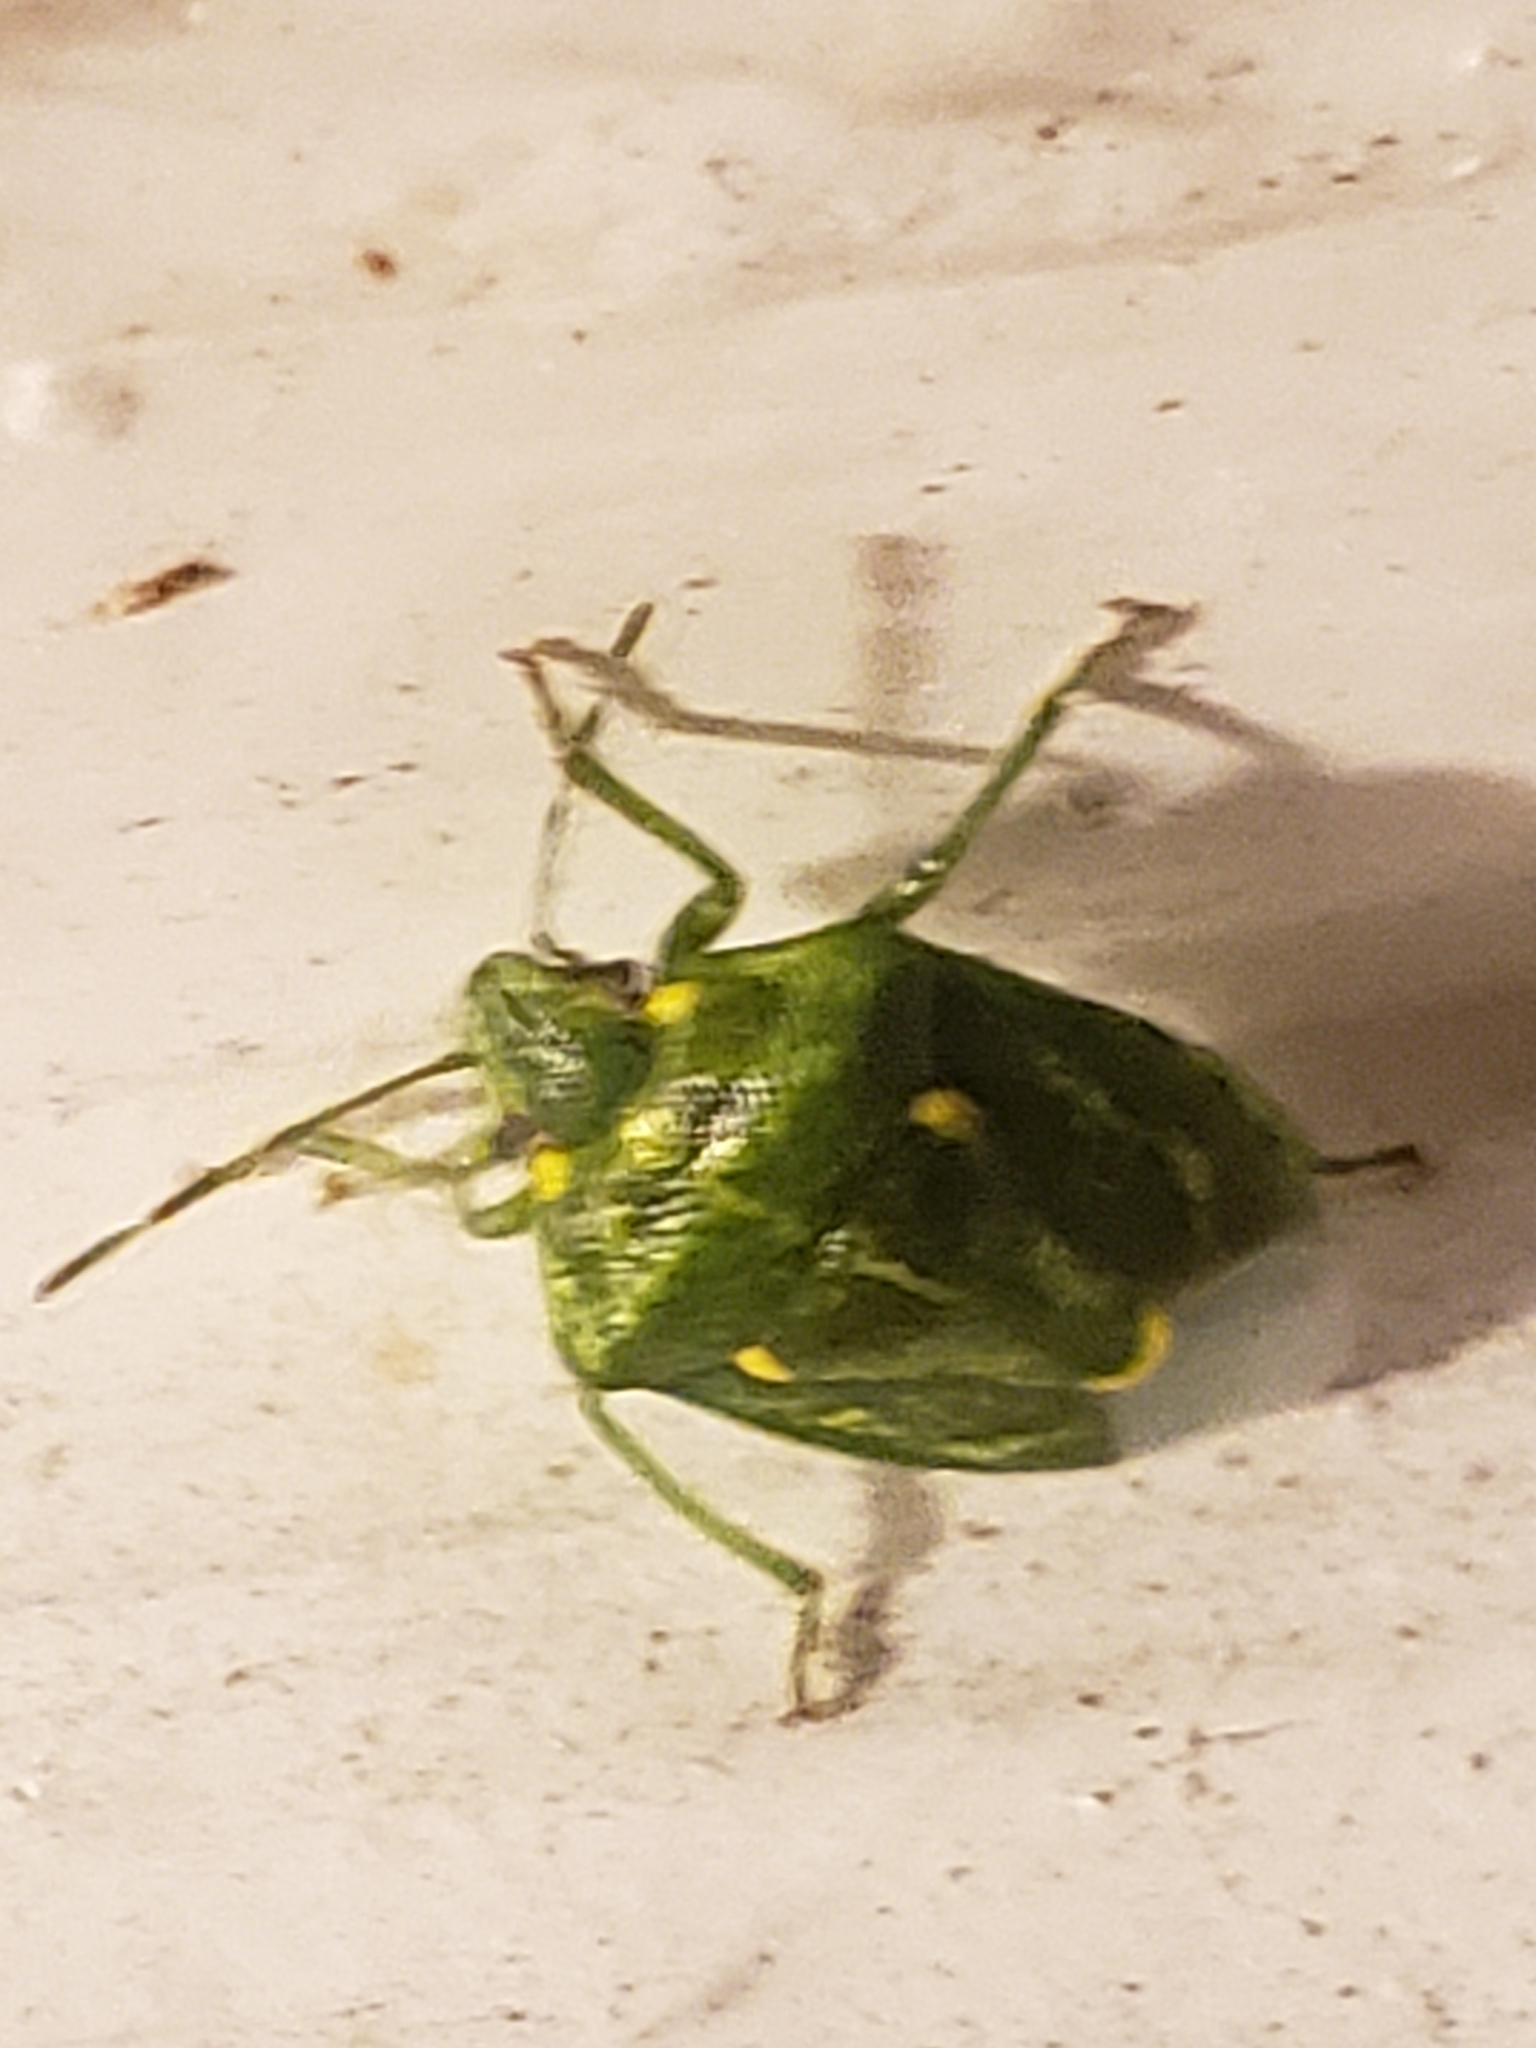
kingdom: Animalia
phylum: Arthropoda
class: Insecta
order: Hemiptera
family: Pentatomidae
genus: Banasa
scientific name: Banasa euchlora
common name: Cedar berry bug
